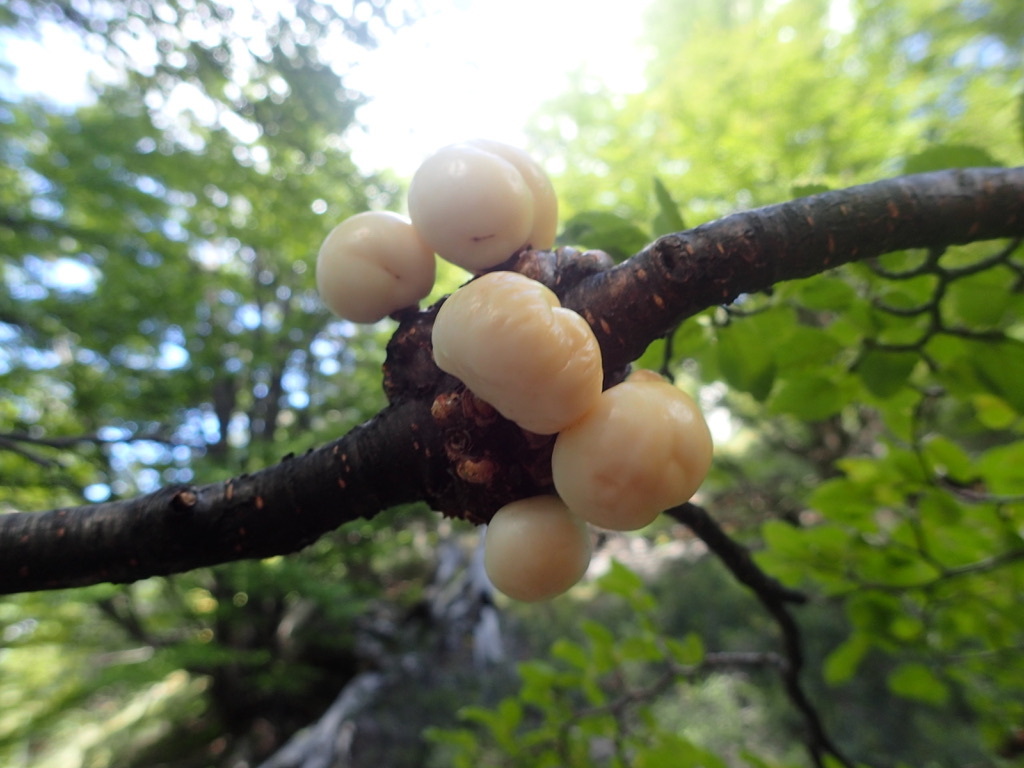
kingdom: Fungi
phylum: Ascomycota
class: Leotiomycetes
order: Cyttariales
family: Cyttariaceae
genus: Cyttaria
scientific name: Cyttaria darwinii
